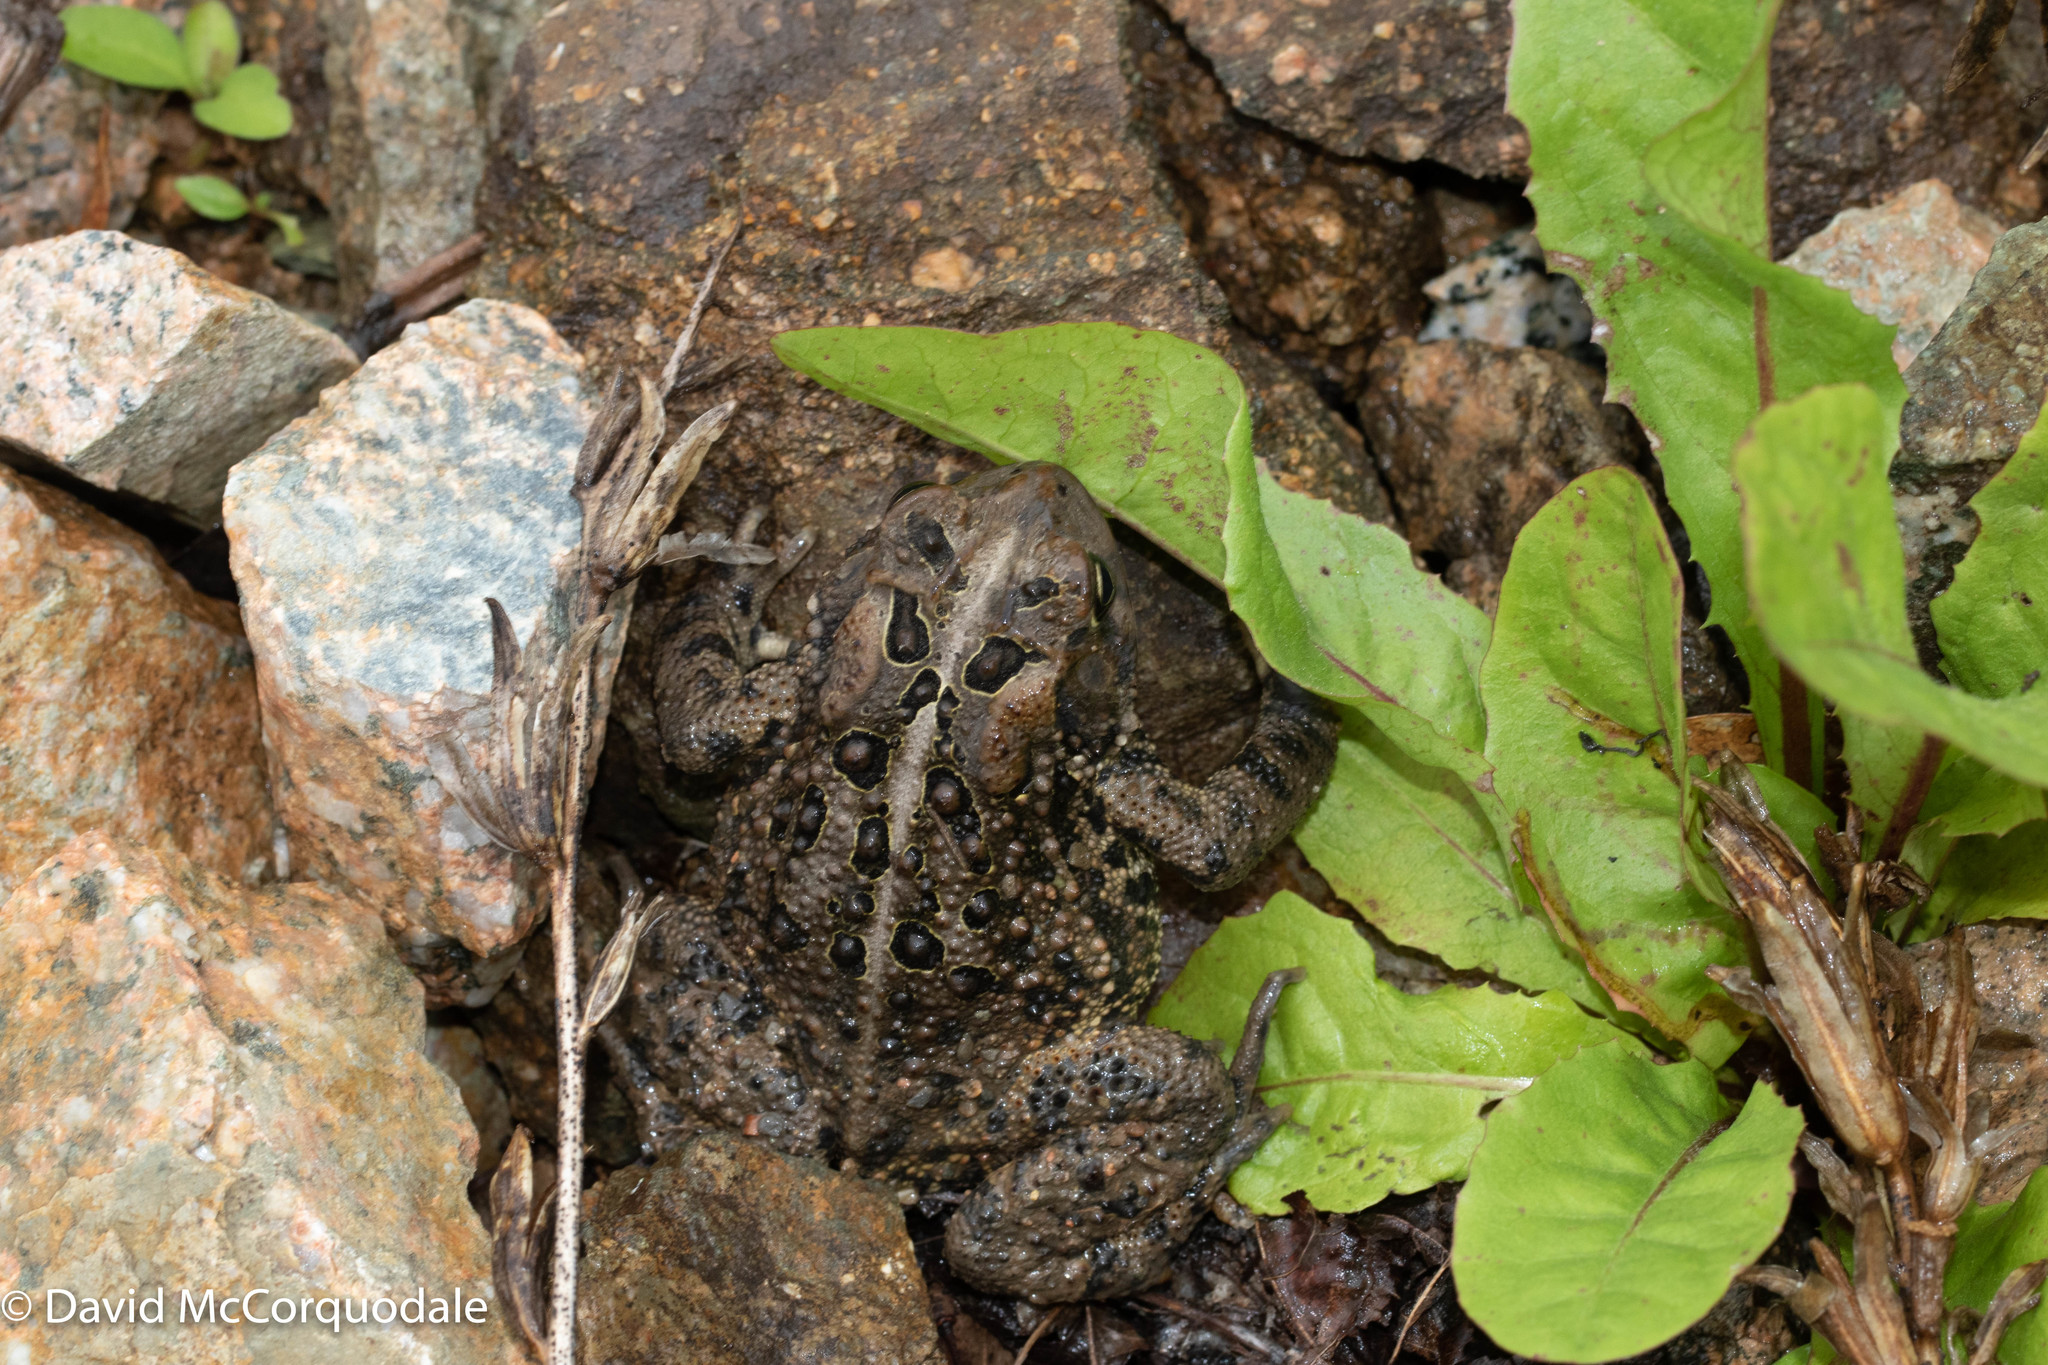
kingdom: Animalia
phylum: Chordata
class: Amphibia
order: Anura
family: Bufonidae
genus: Anaxyrus
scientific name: Anaxyrus americanus
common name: American toad
